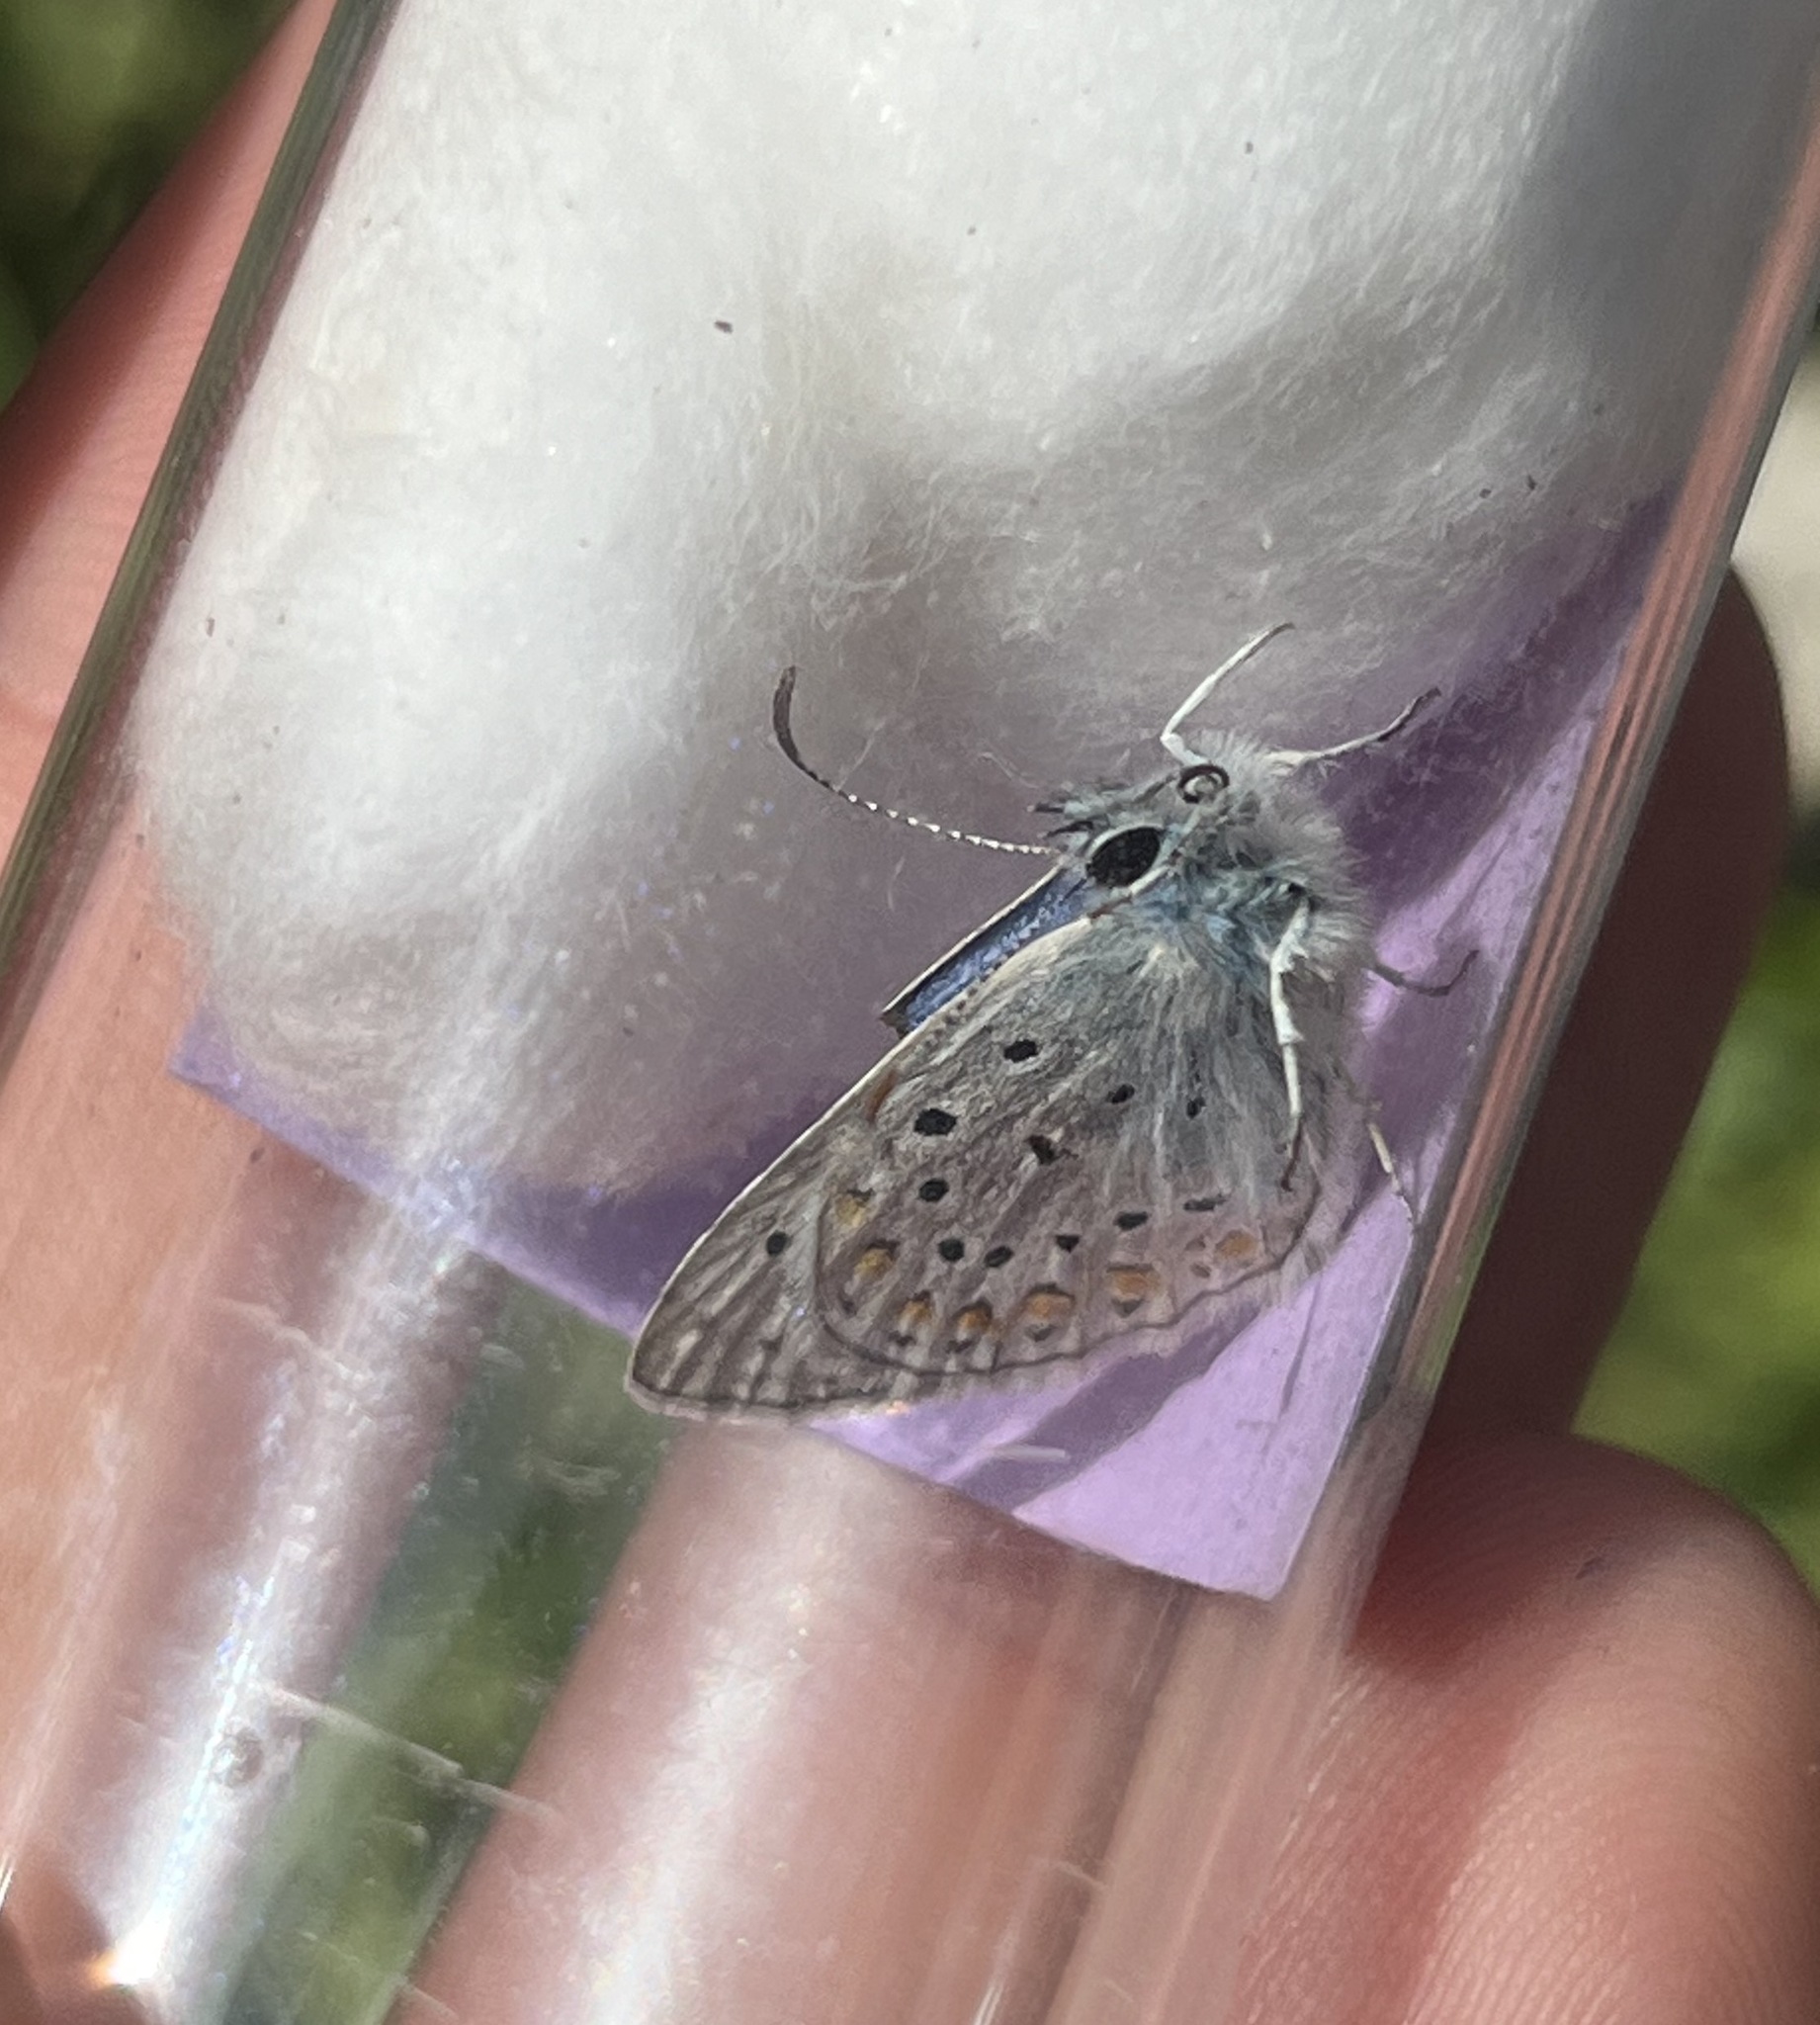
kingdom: Animalia
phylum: Arthropoda
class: Insecta
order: Lepidoptera
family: Lycaenidae
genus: Polyommatus
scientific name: Polyommatus icarus
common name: Common blue
